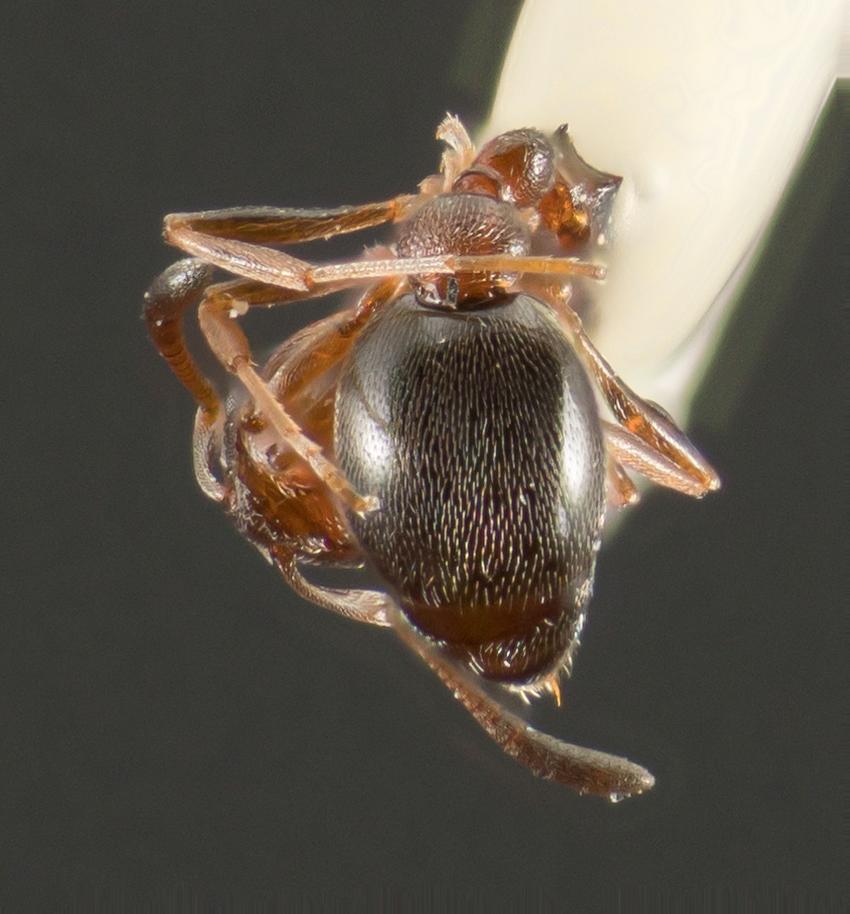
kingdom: Animalia
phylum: Arthropoda
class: Insecta
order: Hymenoptera
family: Formicidae
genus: Cardiocondyla
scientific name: Cardiocondyla mauritanica
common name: Sneaking ant
